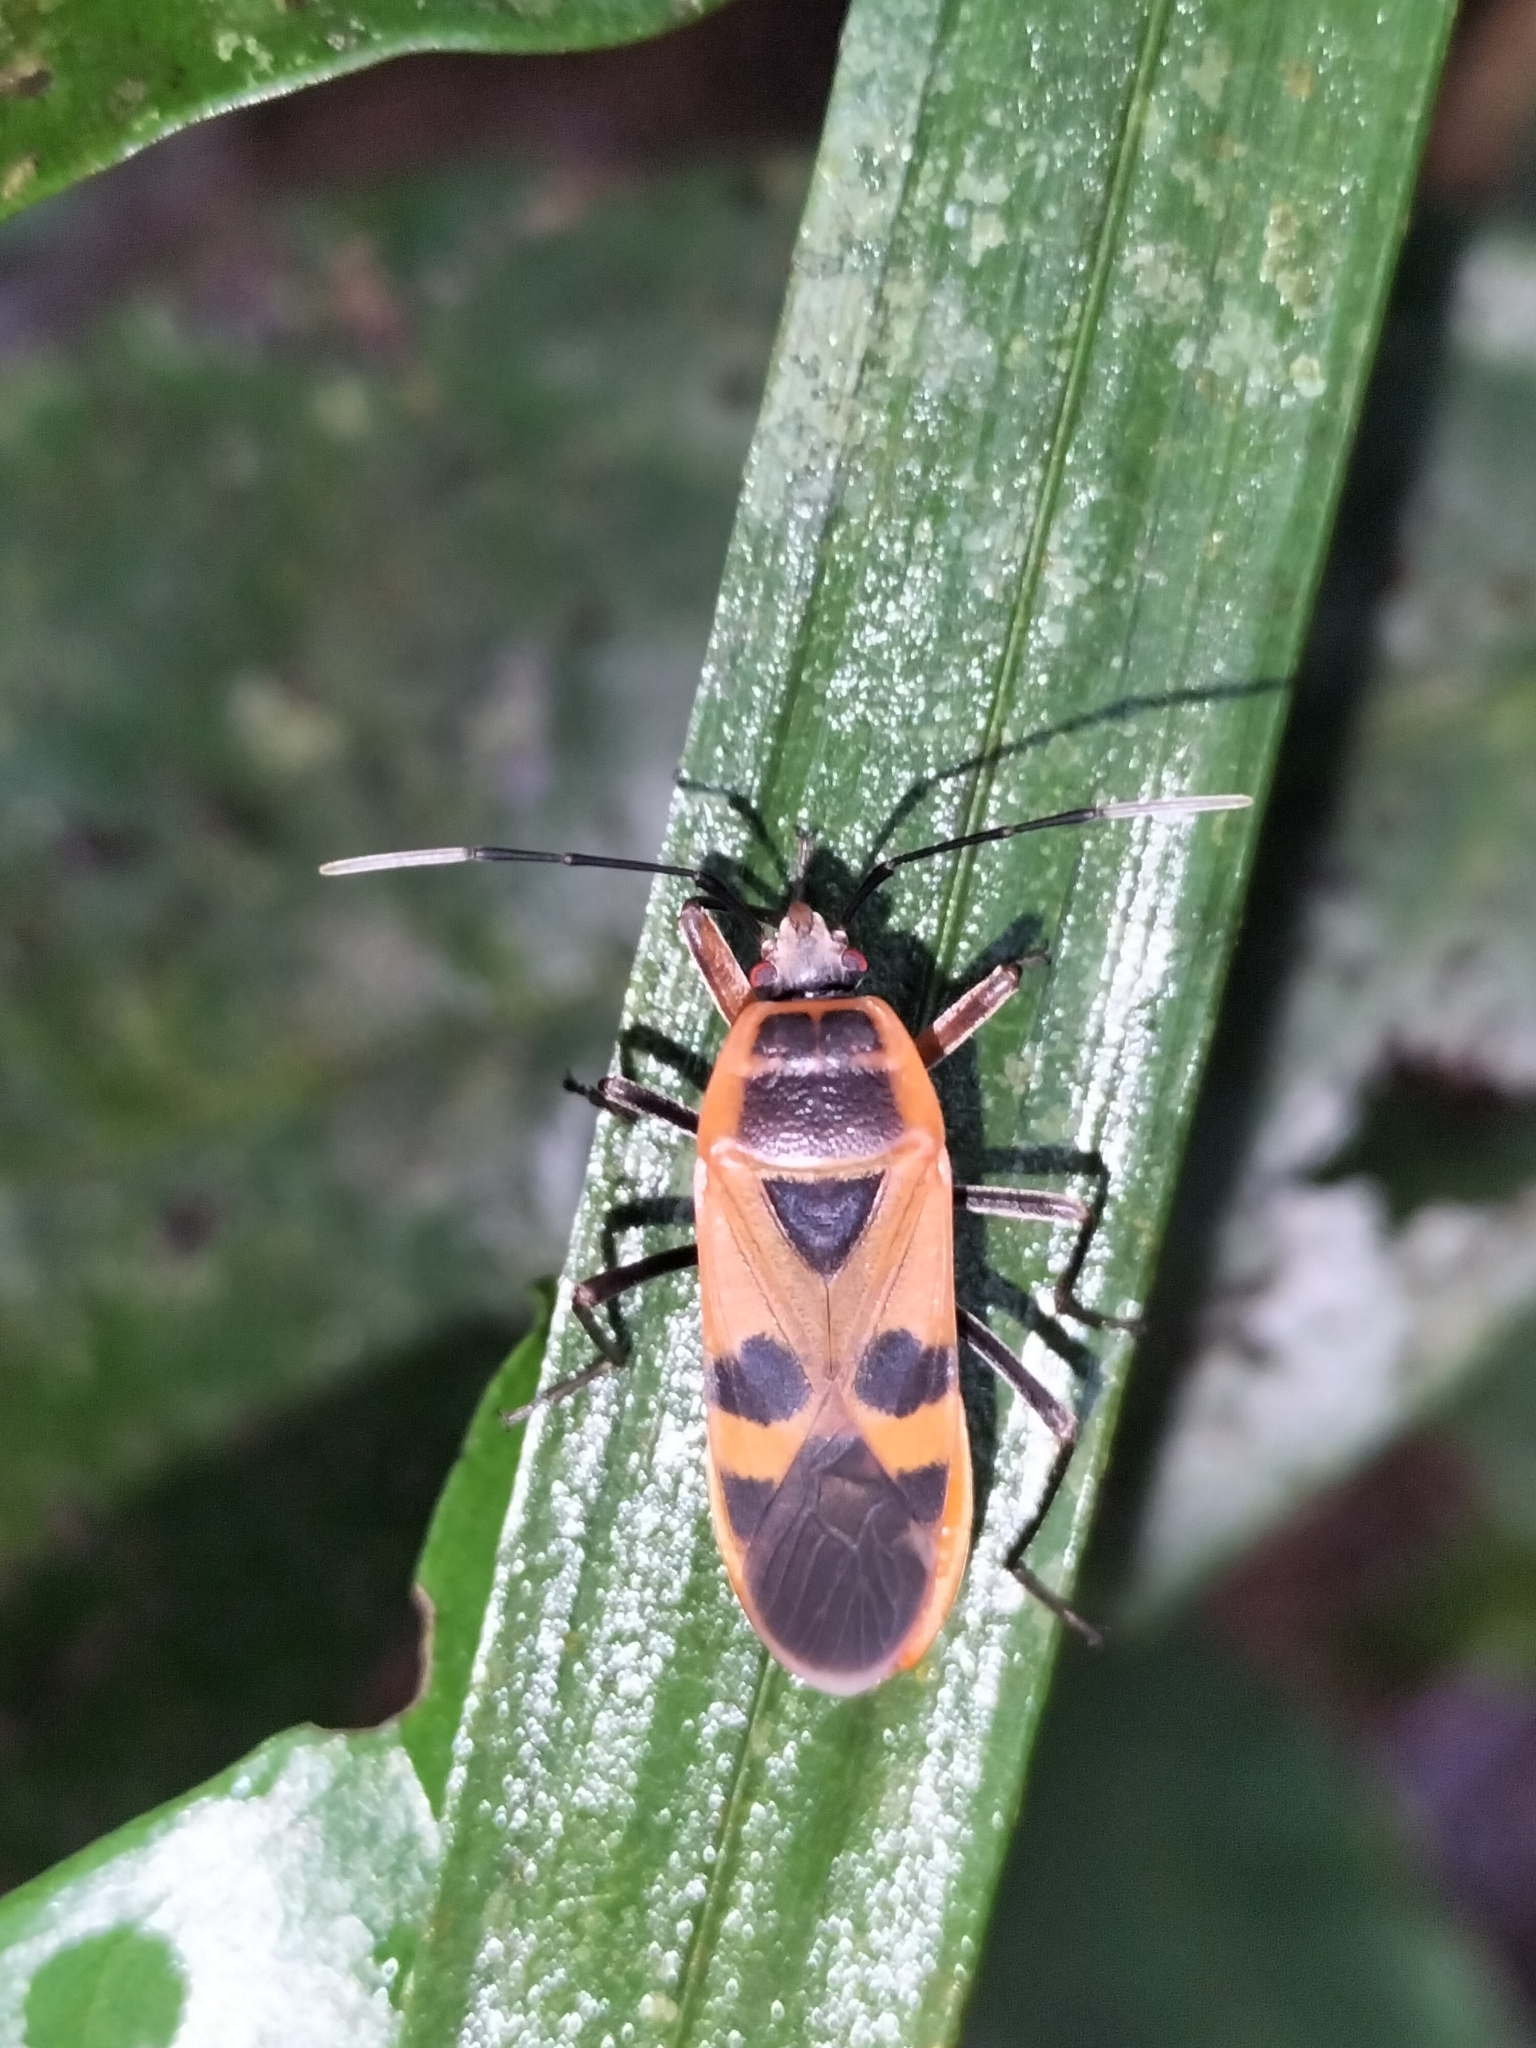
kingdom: Animalia
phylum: Arthropoda
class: Insecta
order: Hemiptera
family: Largidae
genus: Physopelta
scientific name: Physopelta gutta
